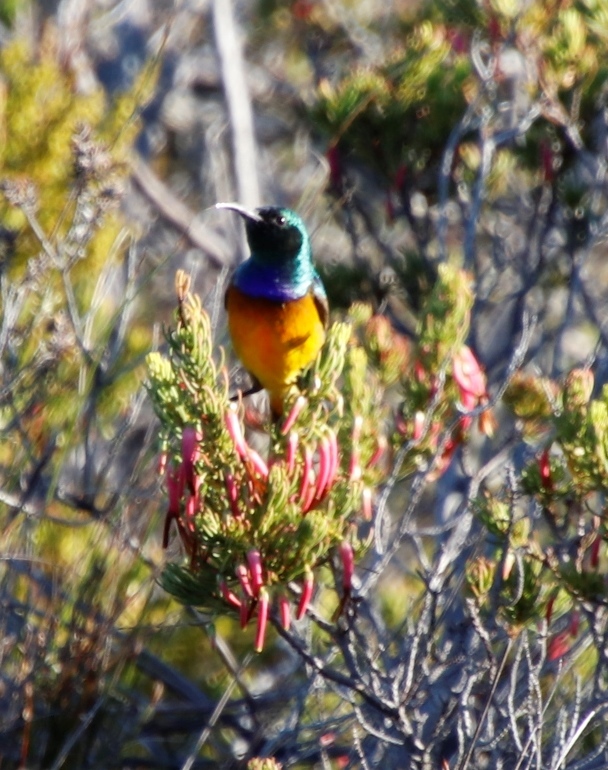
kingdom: Animalia
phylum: Chordata
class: Aves
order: Passeriformes
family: Nectariniidae
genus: Anthobaphes
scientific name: Anthobaphes violacea
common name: Orange-breasted sunbird
